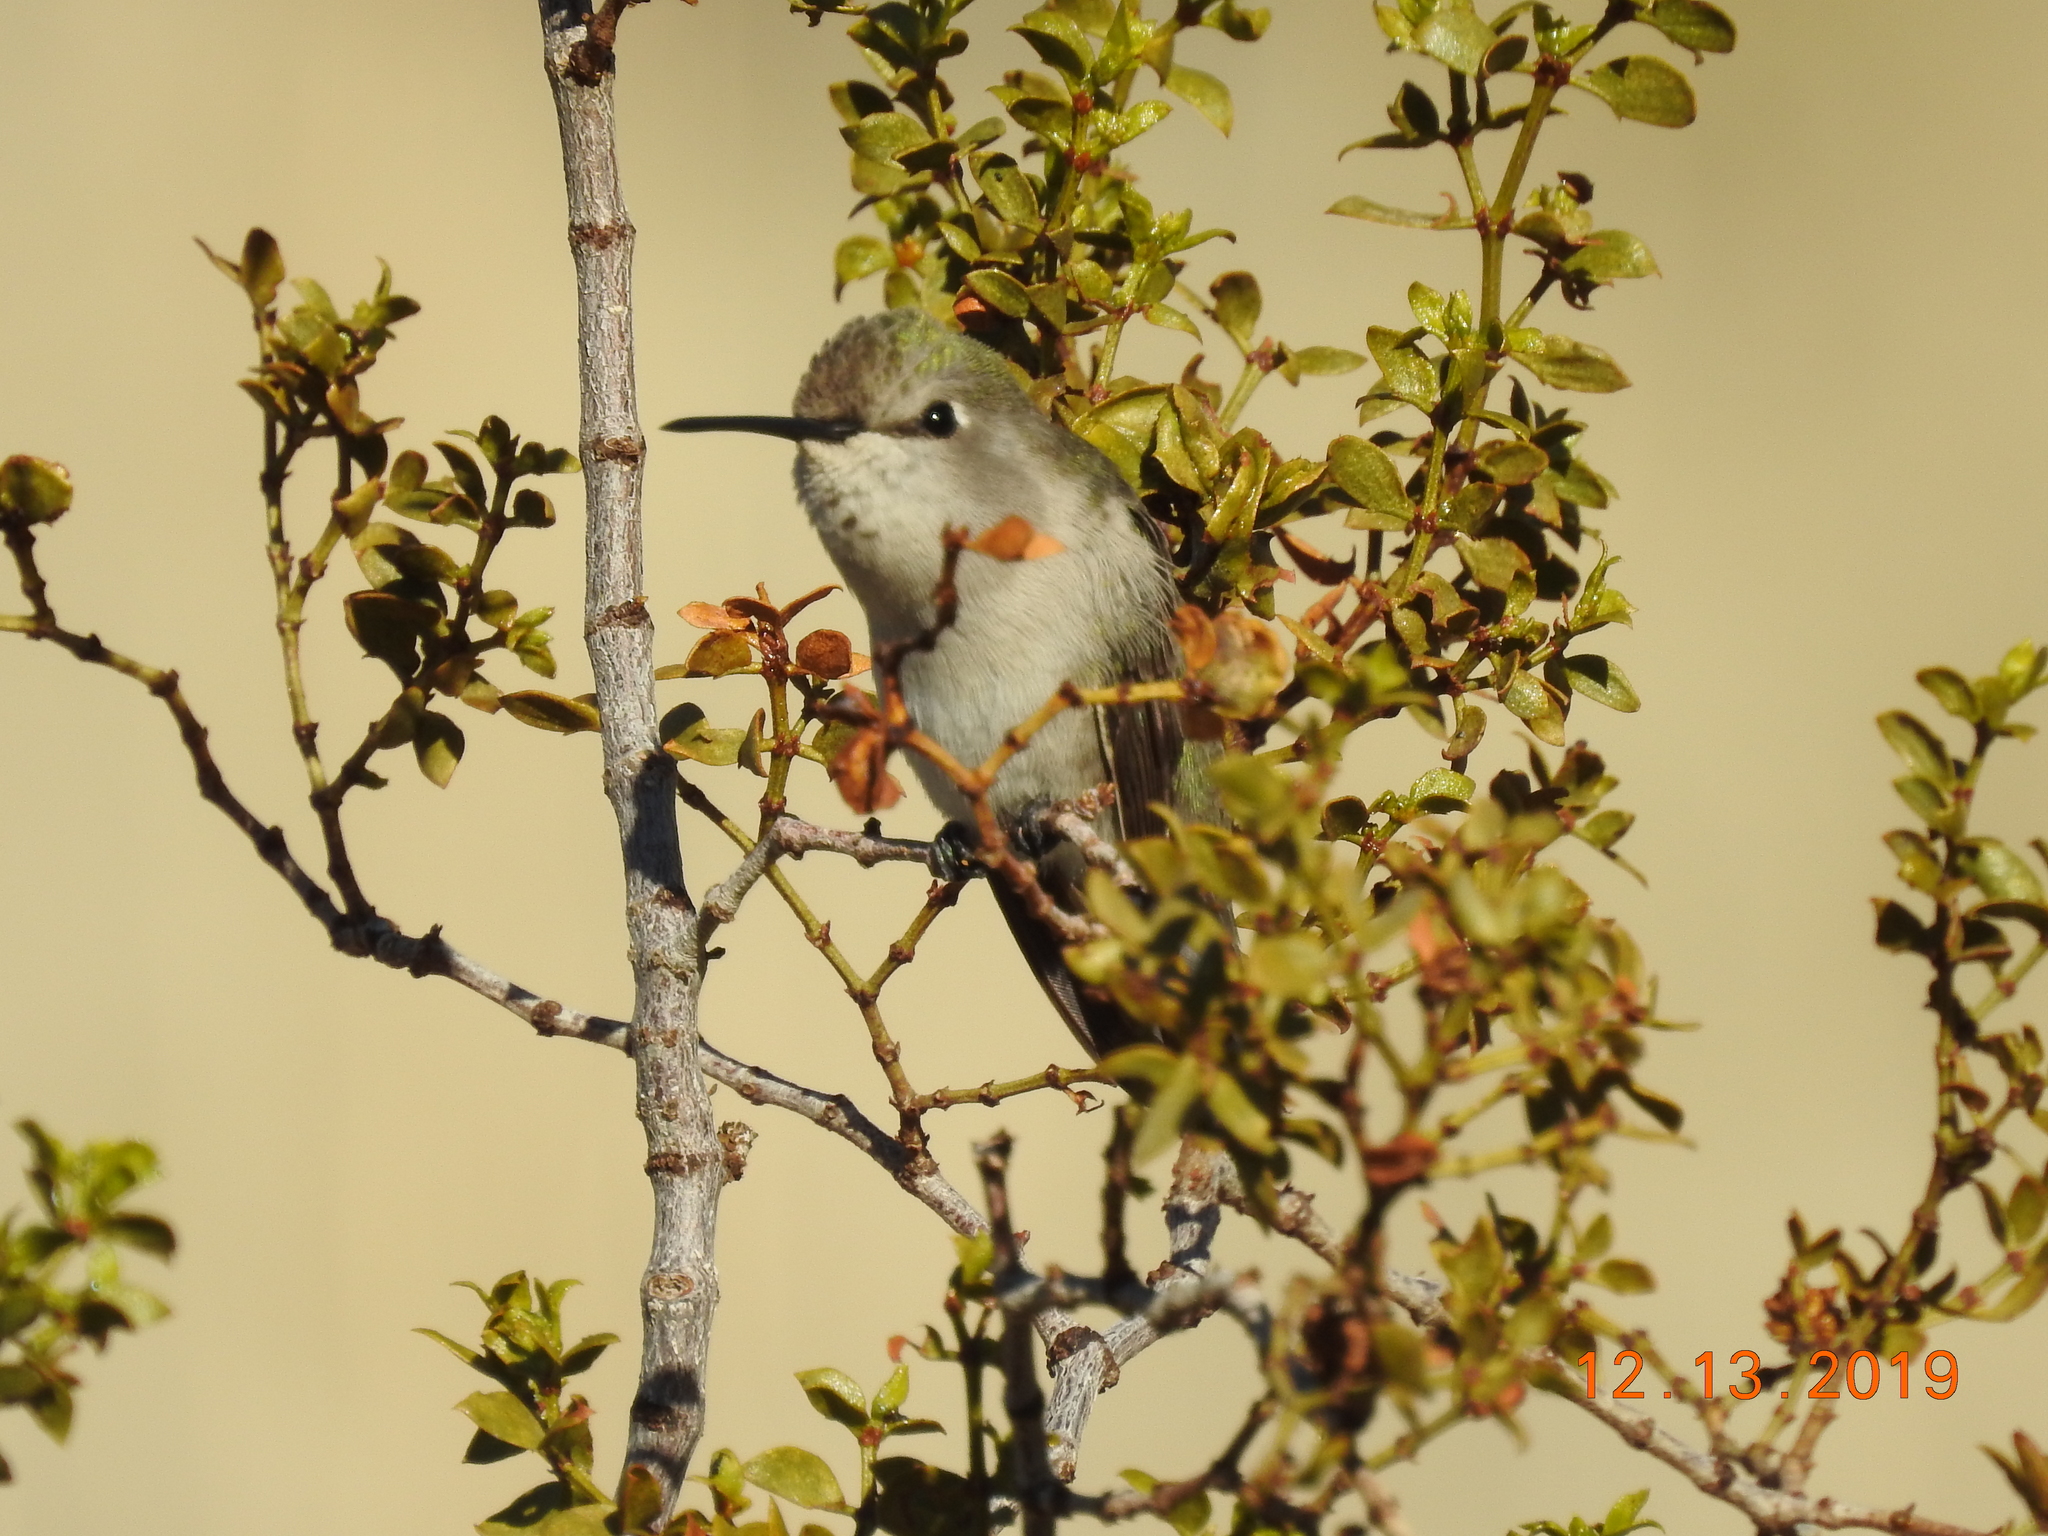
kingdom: Animalia
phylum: Chordata
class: Aves
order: Apodiformes
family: Trochilidae
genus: Calypte
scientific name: Calypte costae
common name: Costa's hummingbird
